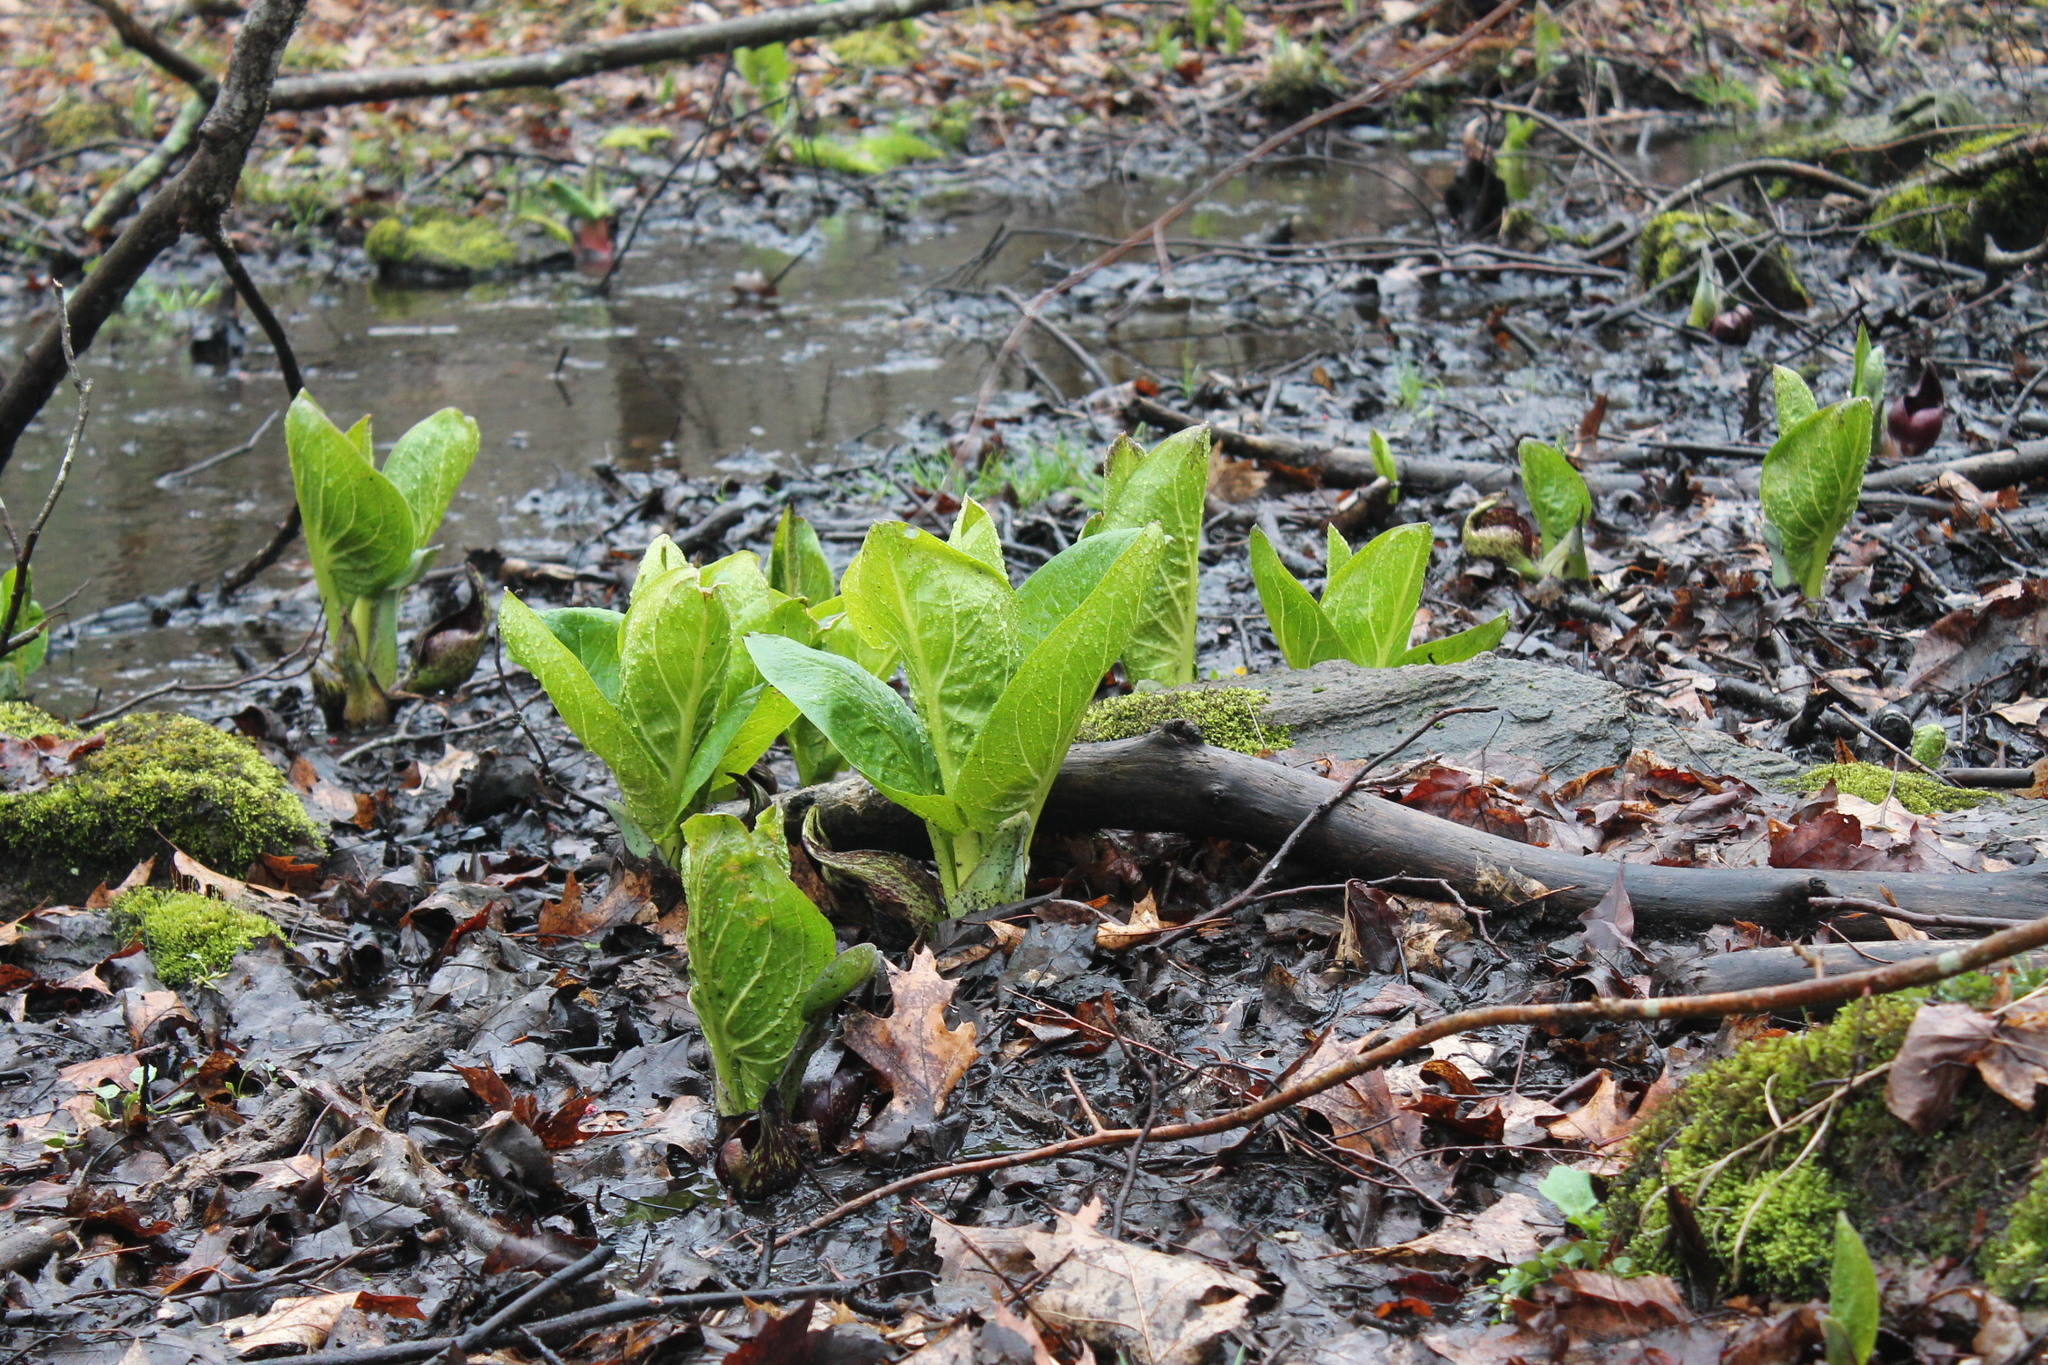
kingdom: Plantae
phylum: Tracheophyta
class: Liliopsida
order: Alismatales
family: Araceae
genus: Symplocarpus
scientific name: Symplocarpus foetidus
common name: Eastern skunk cabbage
